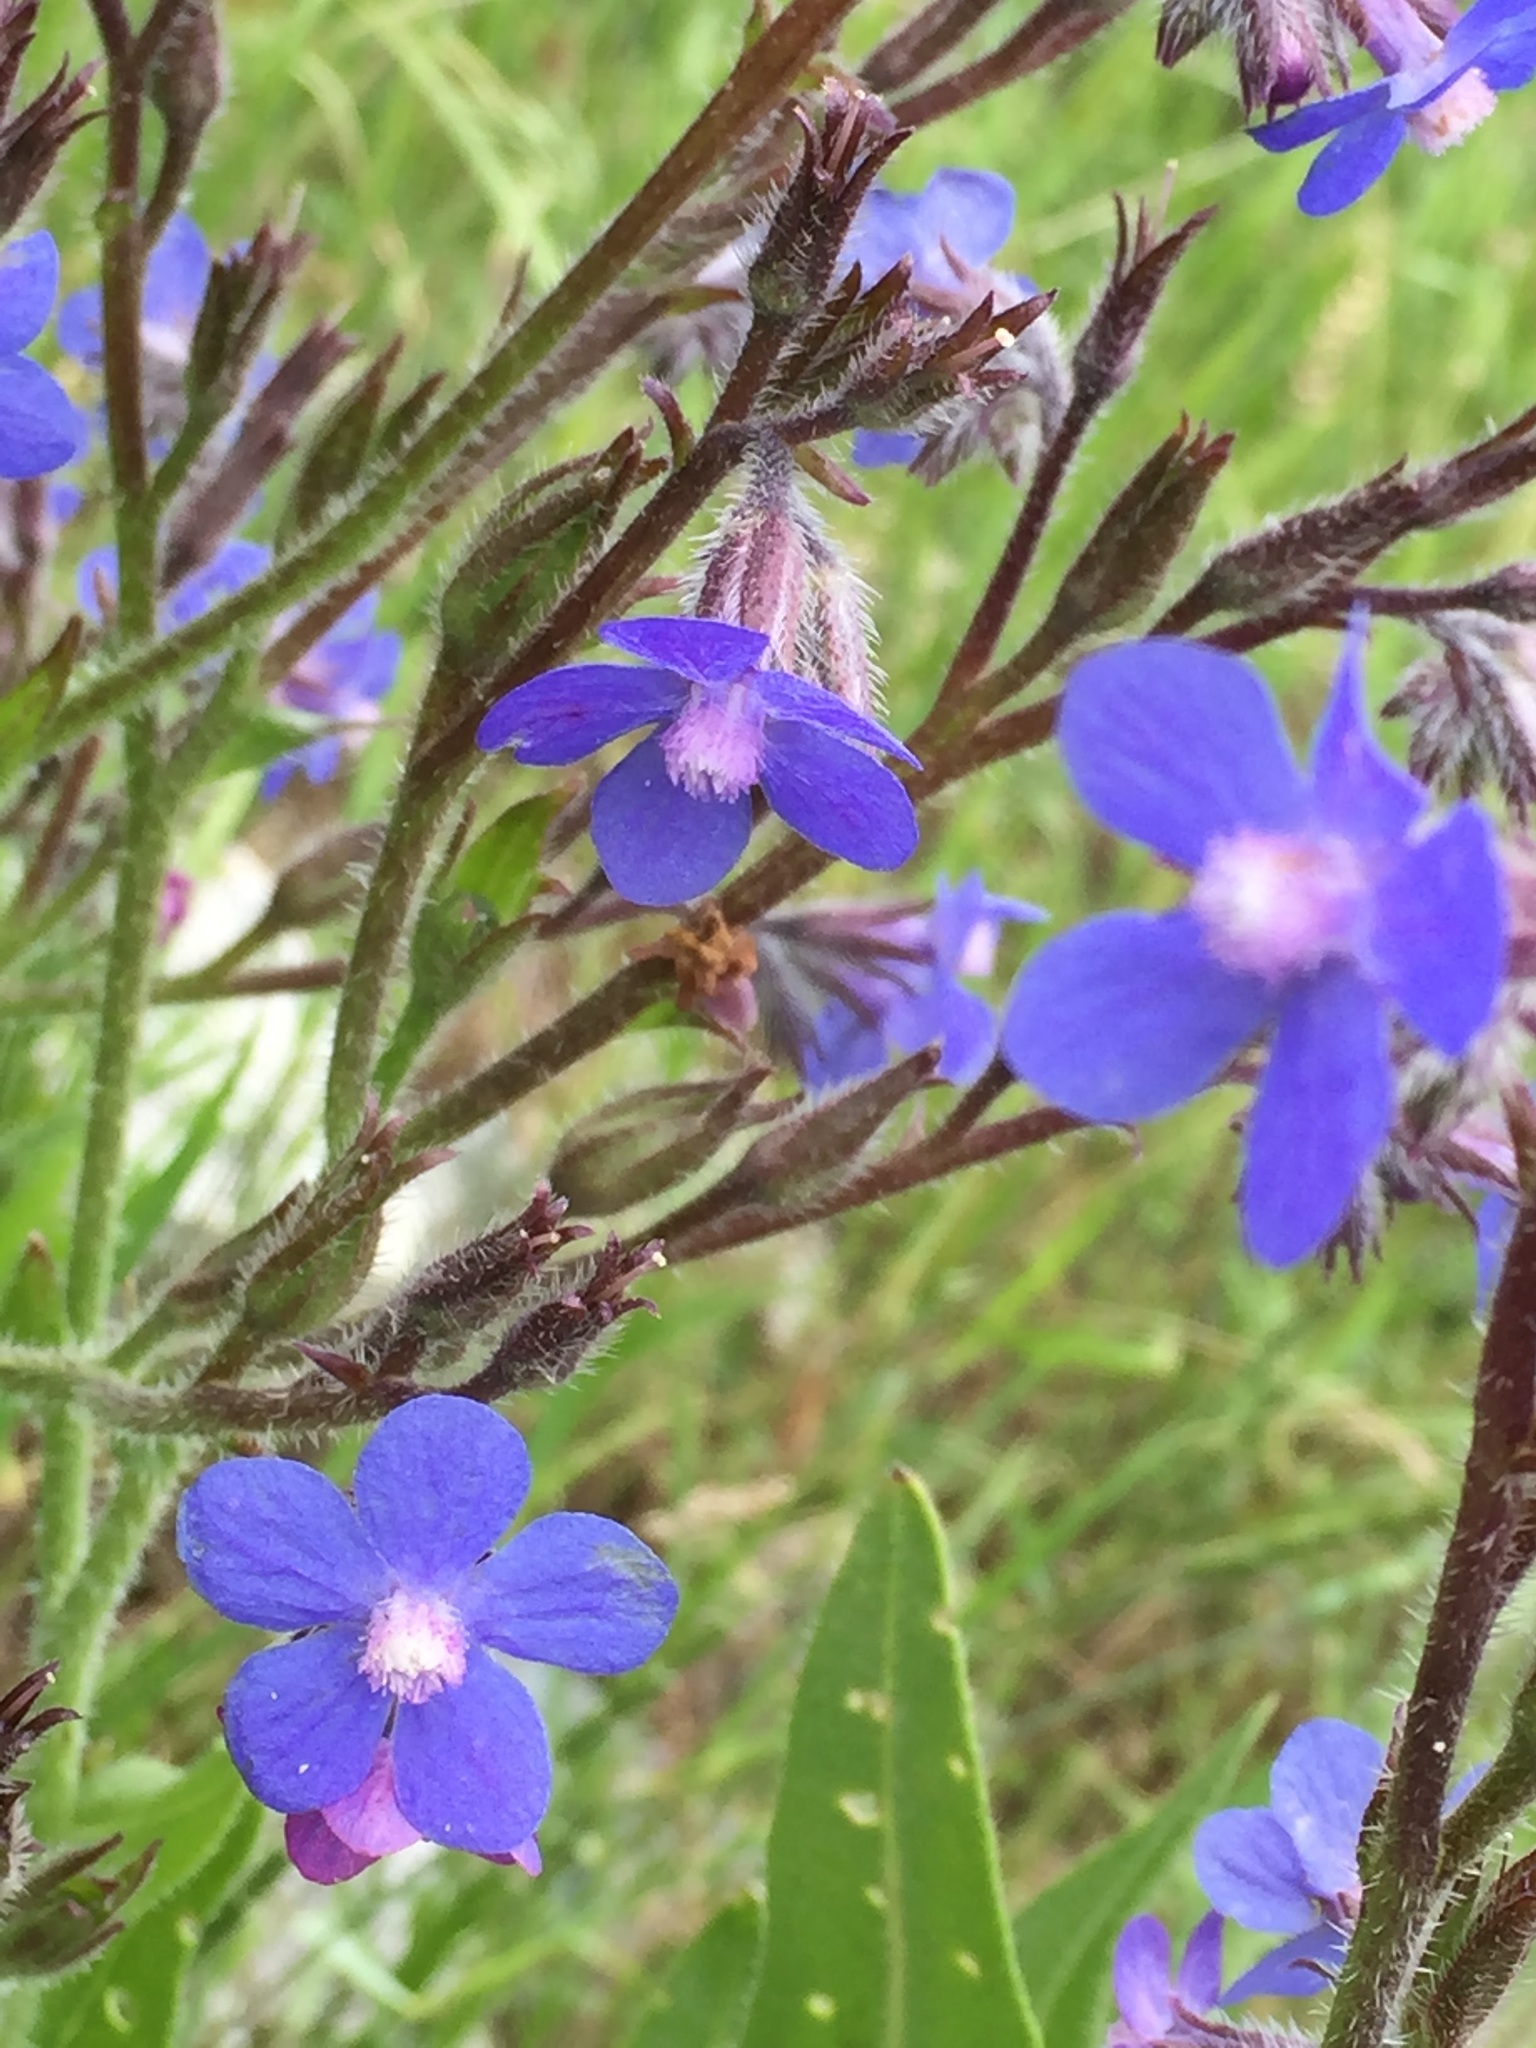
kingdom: Plantae
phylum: Tracheophyta
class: Magnoliopsida
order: Boraginales
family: Boraginaceae
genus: Anchusa
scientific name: Anchusa azurea
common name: Garden anchusa
